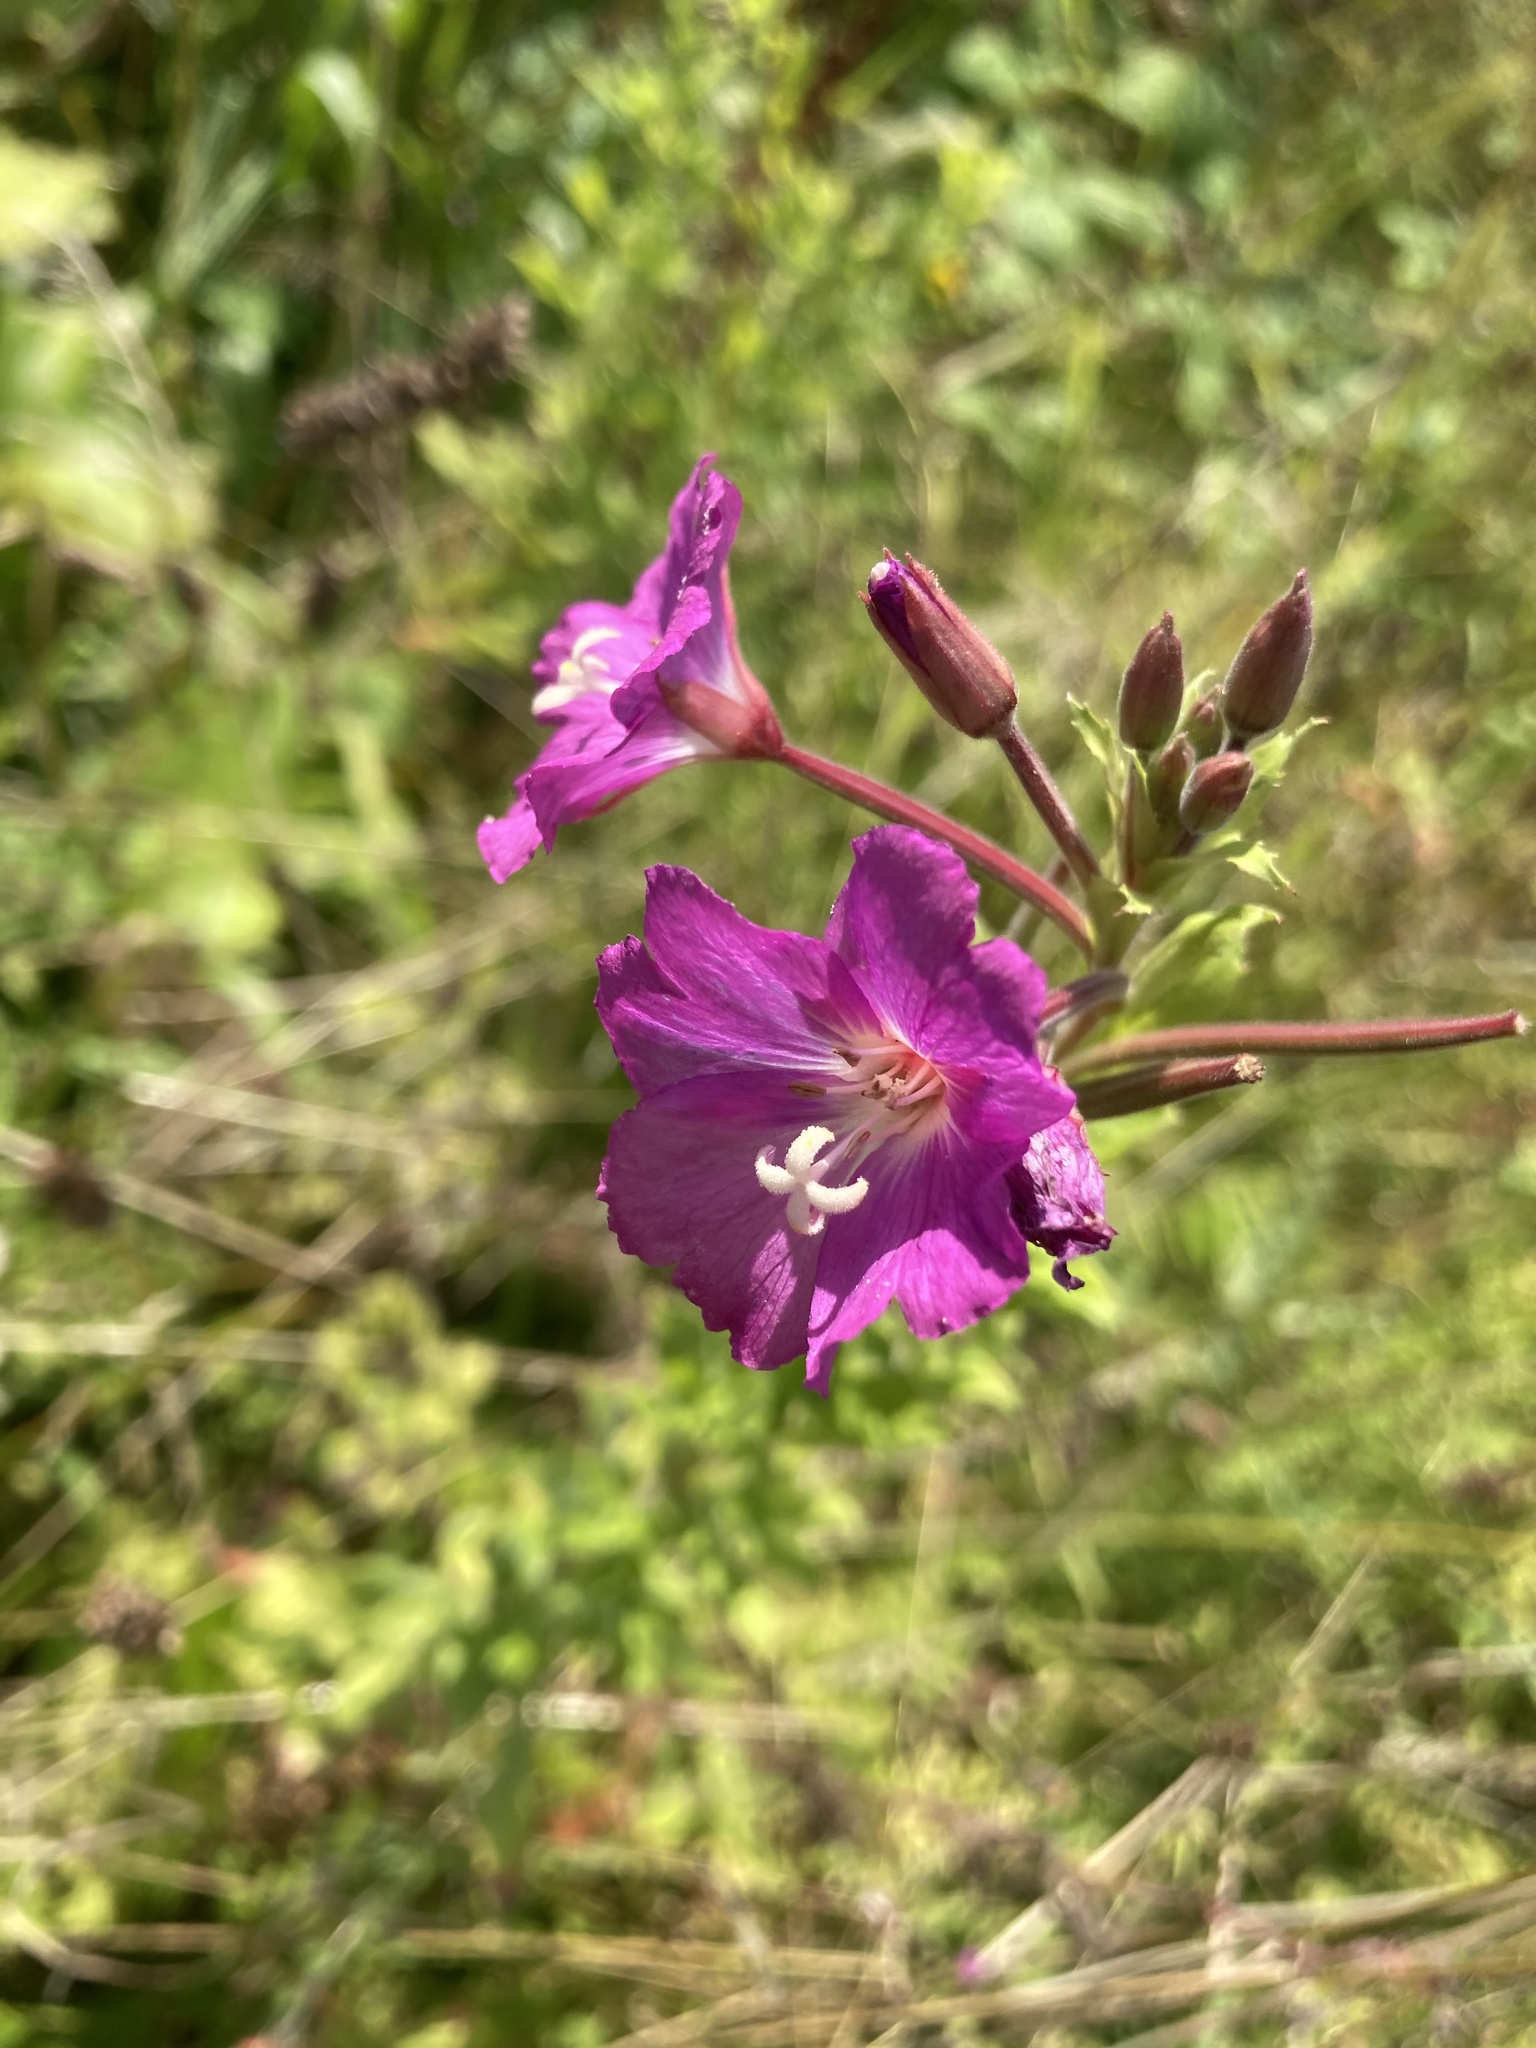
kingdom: Plantae
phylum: Tracheophyta
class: Magnoliopsida
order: Myrtales
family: Onagraceae
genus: Epilobium
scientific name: Epilobium hirsutum
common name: Great willowherb
